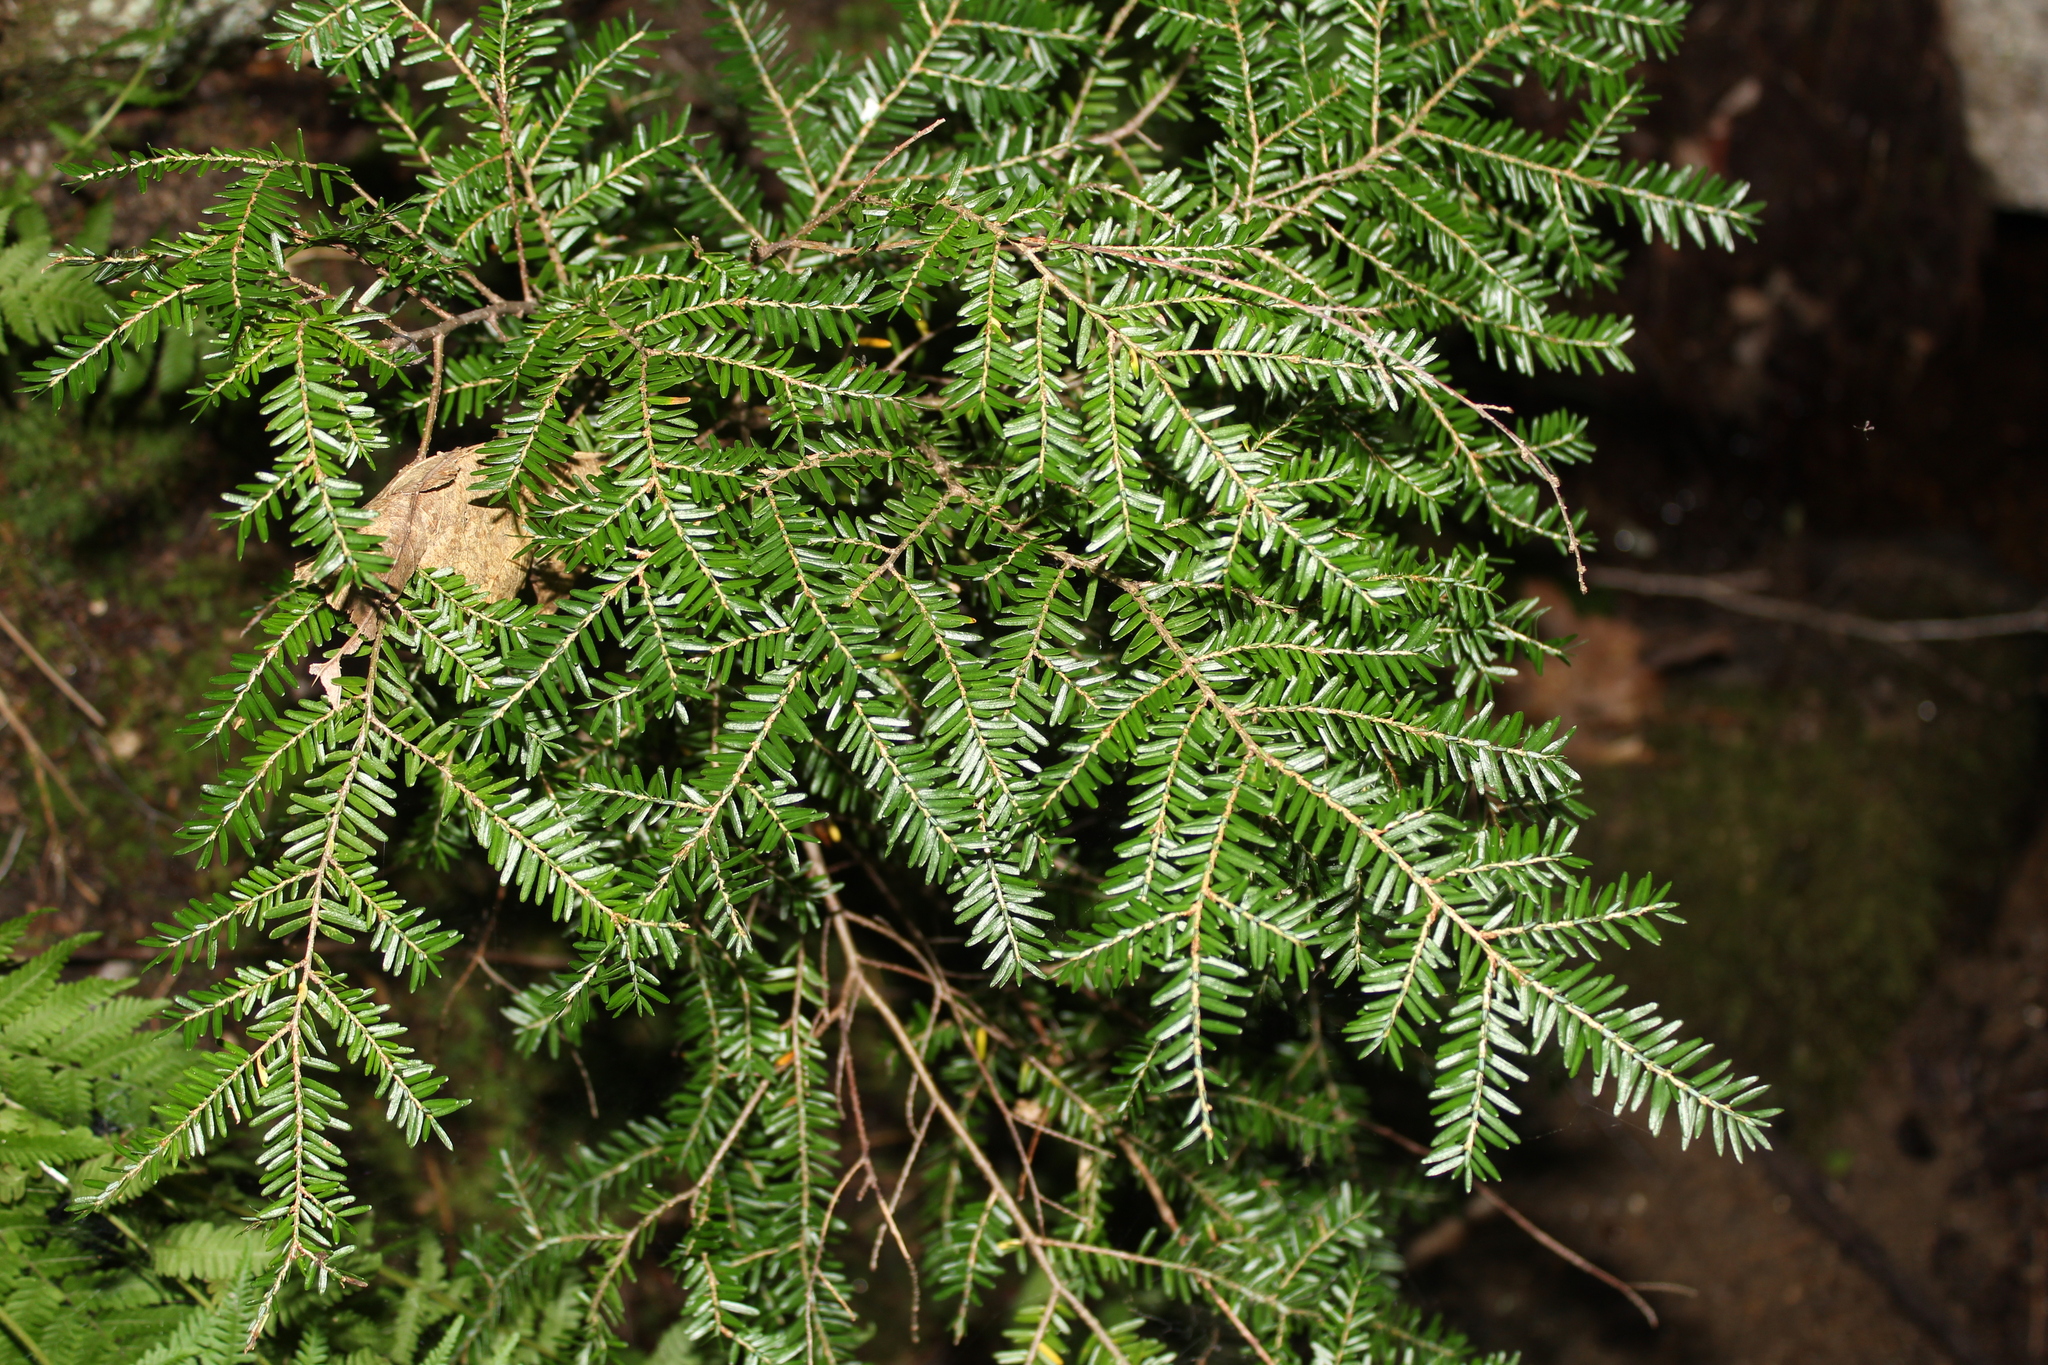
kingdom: Plantae
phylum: Tracheophyta
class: Pinopsida
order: Pinales
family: Pinaceae
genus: Tsuga
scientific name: Tsuga canadensis
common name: Eastern hemlock
